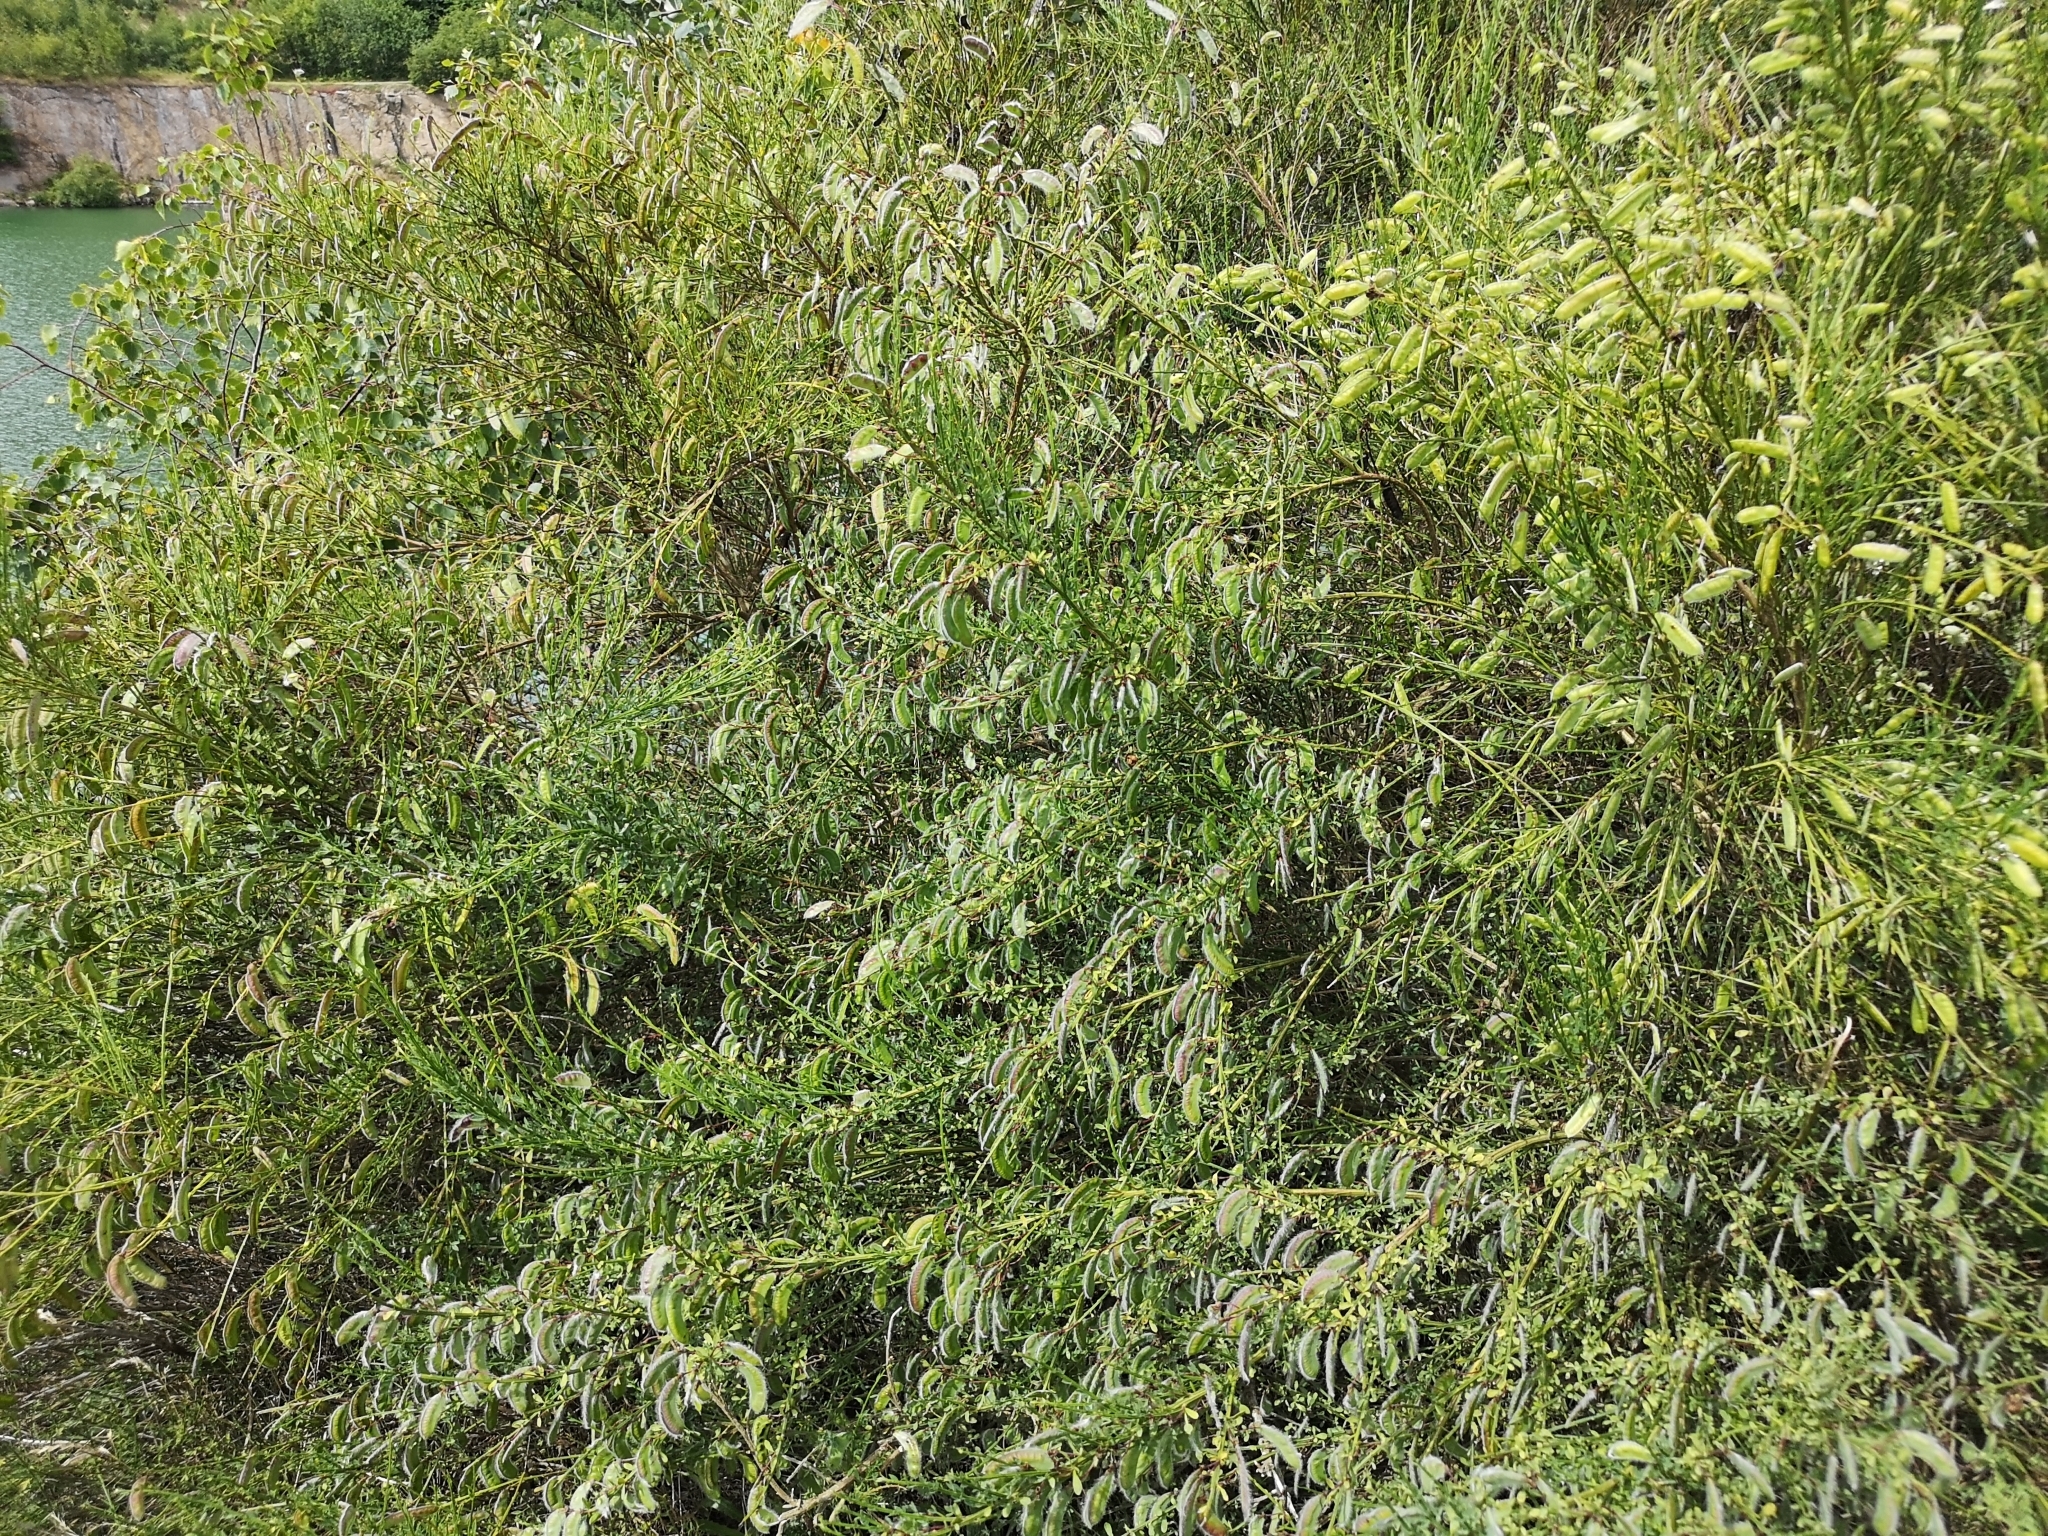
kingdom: Plantae
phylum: Tracheophyta
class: Magnoliopsida
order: Fabales
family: Fabaceae
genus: Cytisus
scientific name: Cytisus scoparius
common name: Scotch broom
